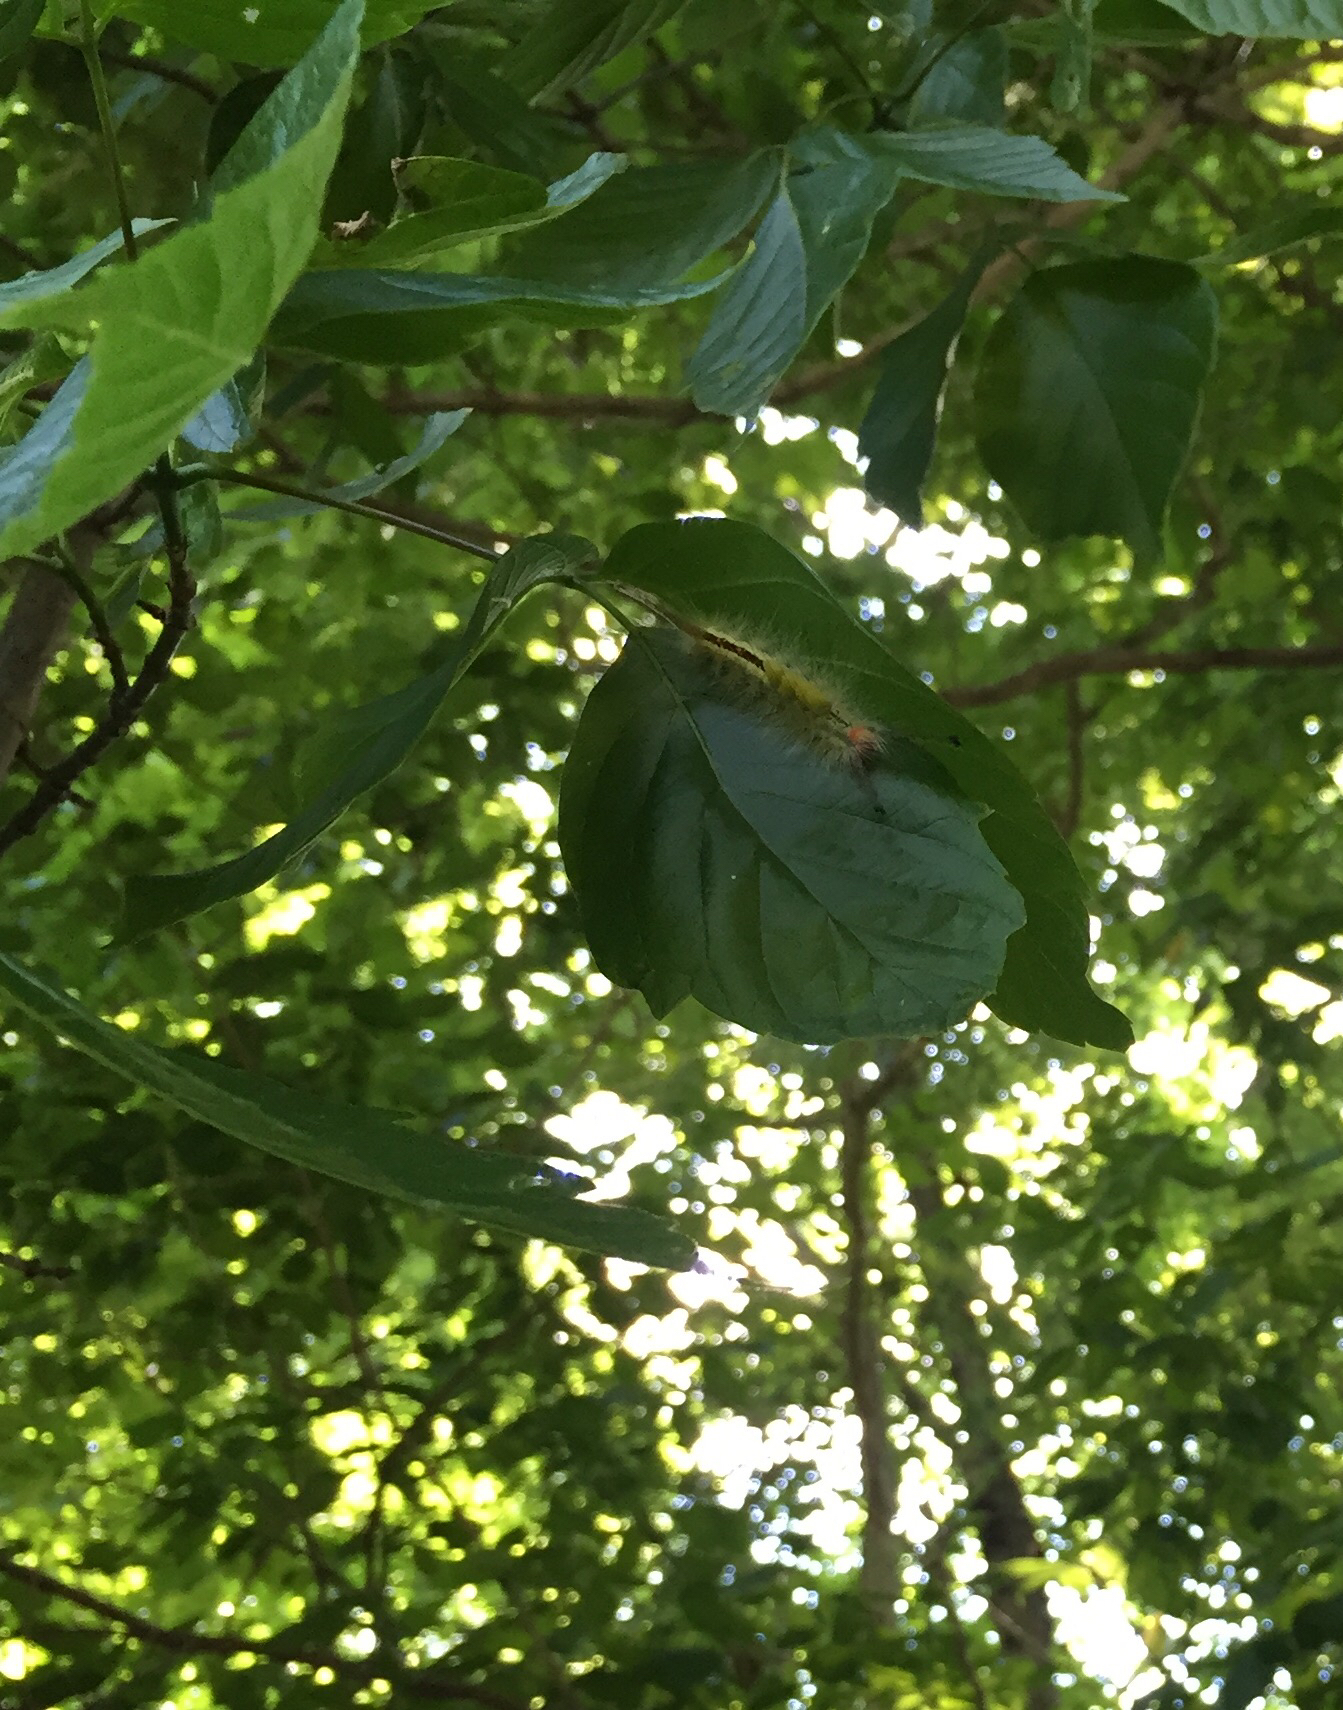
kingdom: Animalia
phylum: Arthropoda
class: Insecta
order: Lepidoptera
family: Erebidae
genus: Orgyia
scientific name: Orgyia leucostigma
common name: White-marked tussock moth
